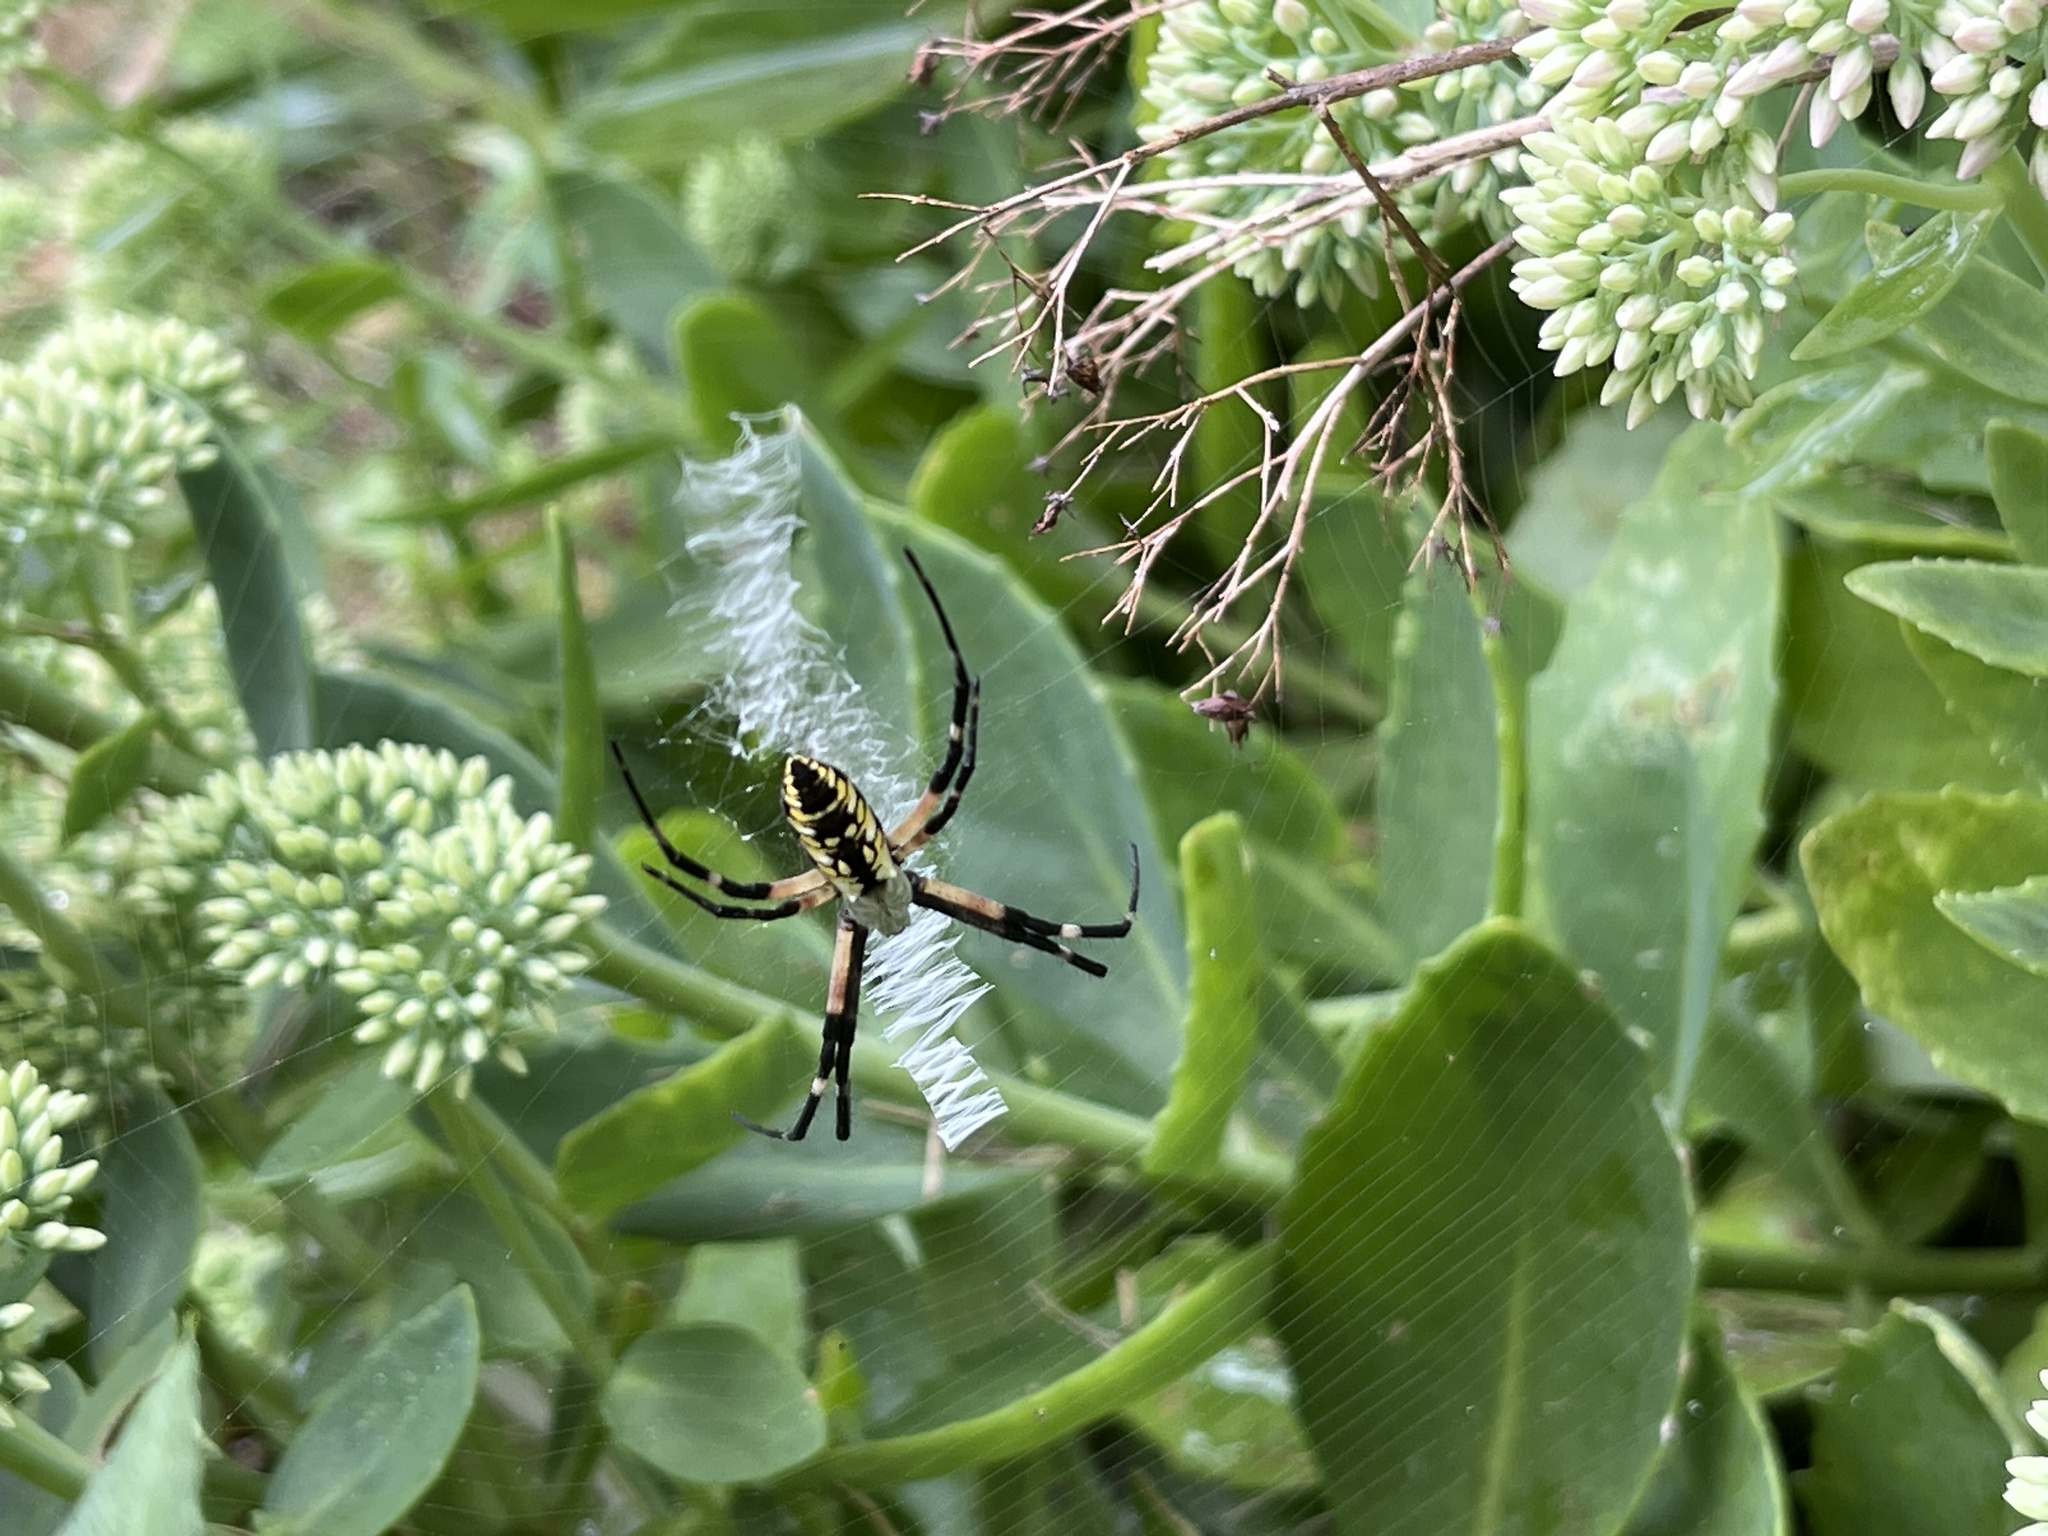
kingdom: Animalia
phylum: Arthropoda
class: Arachnida
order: Araneae
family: Araneidae
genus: Argiope
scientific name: Argiope aurantia
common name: Orb weavers
